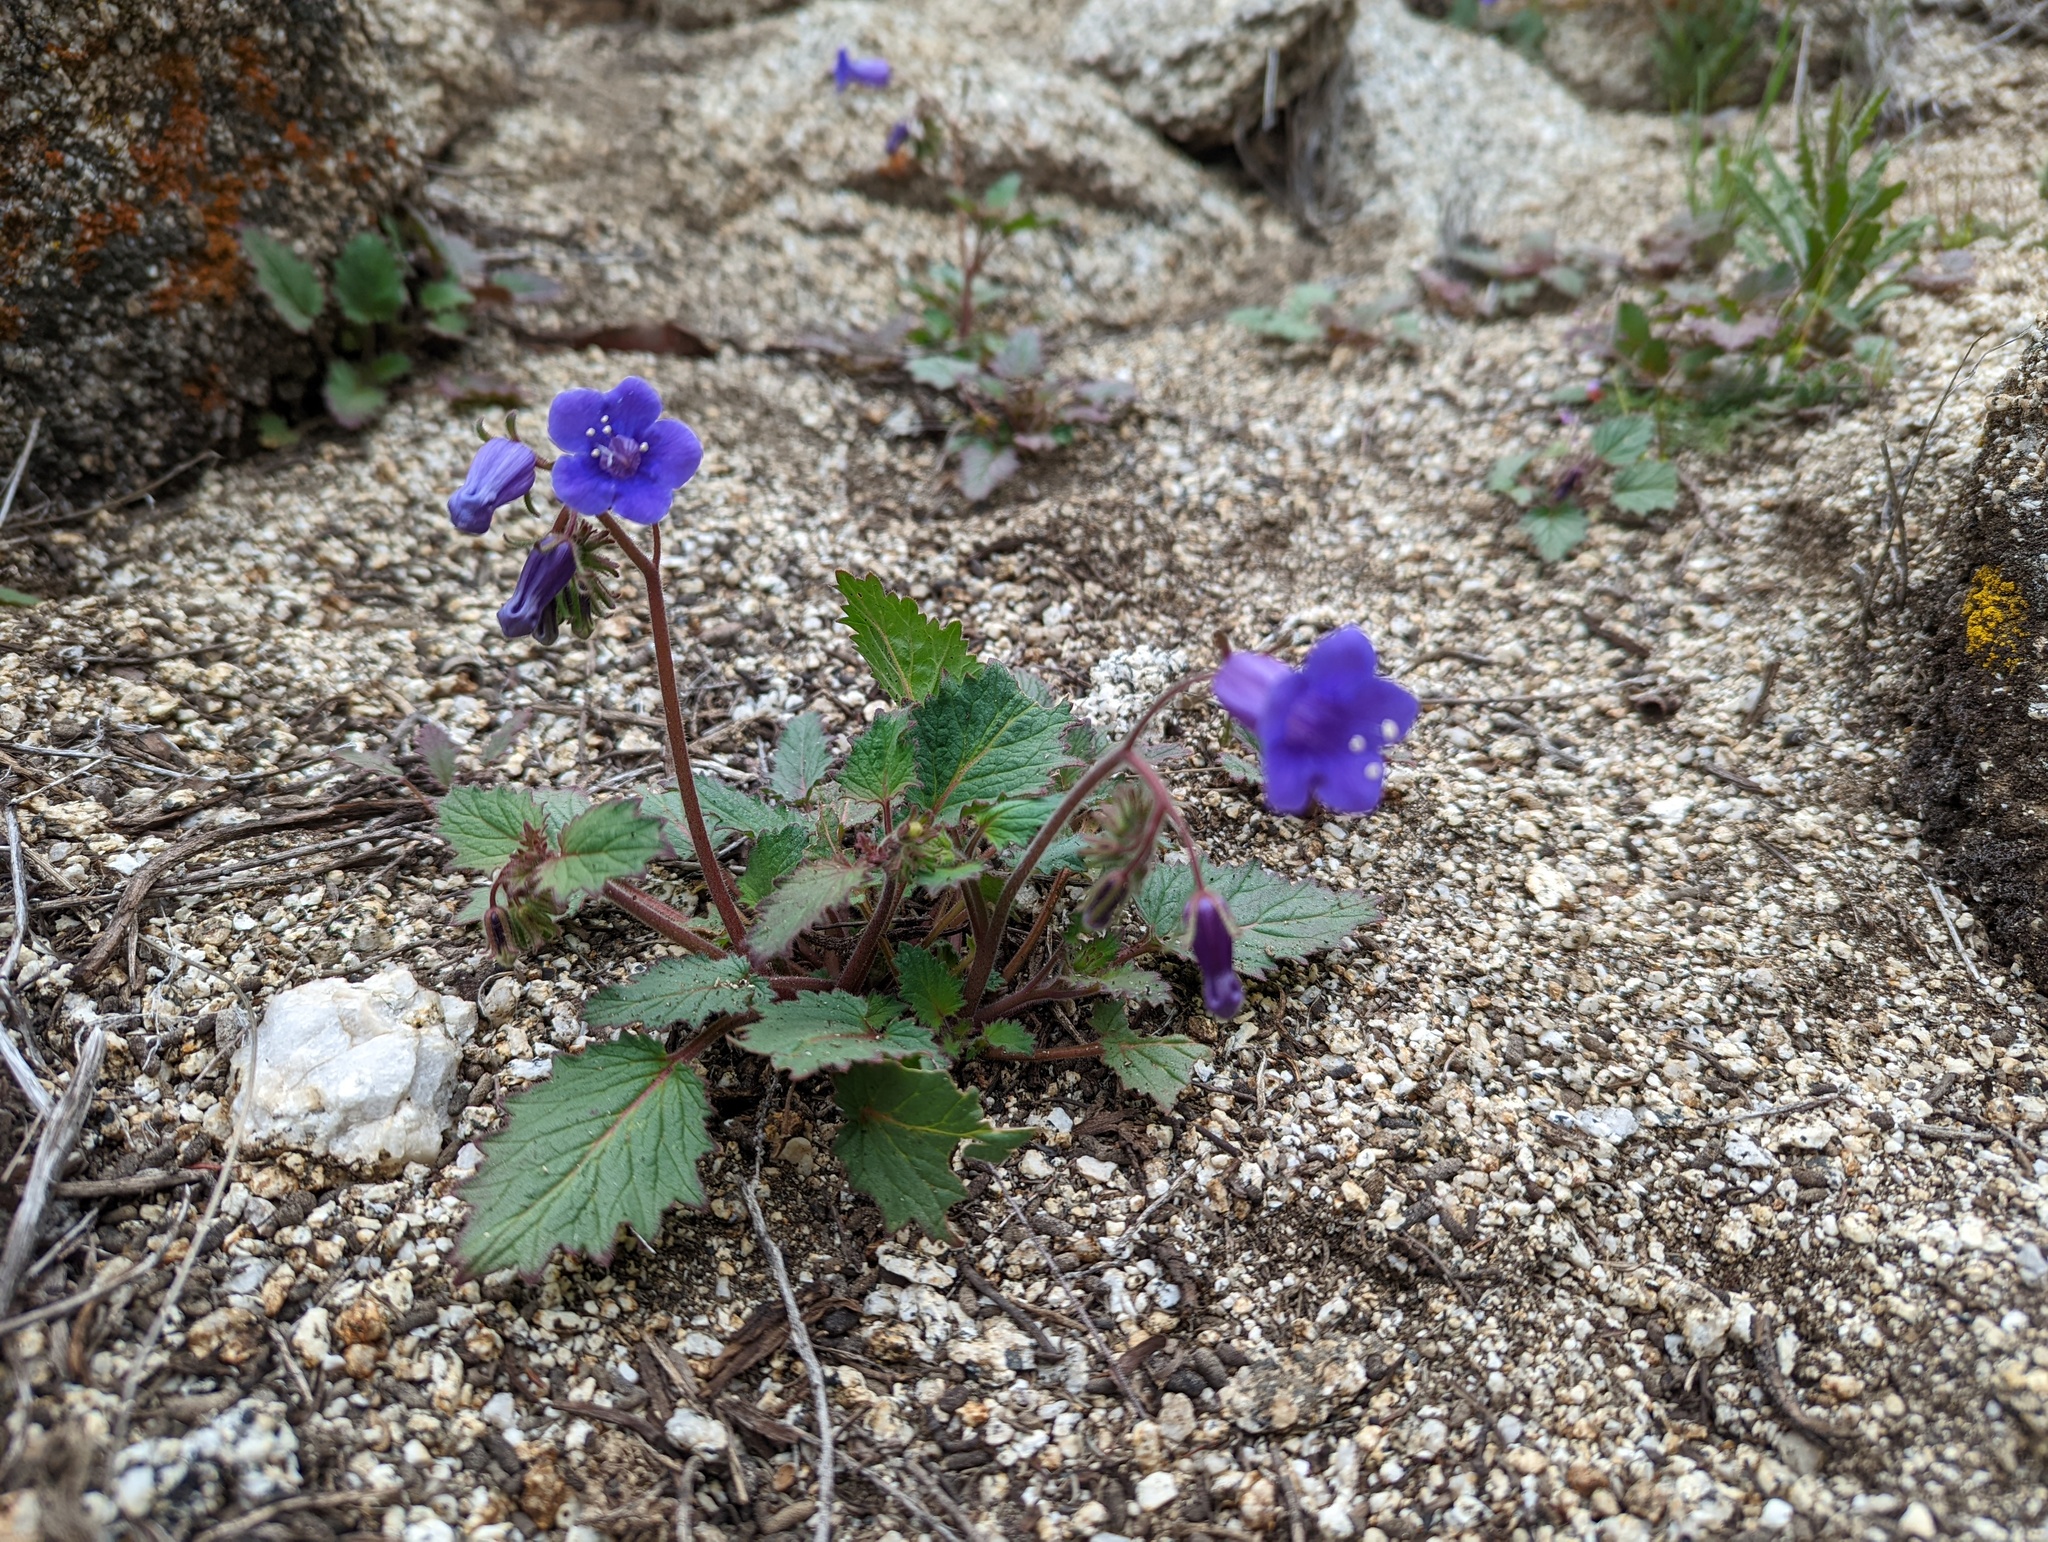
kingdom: Plantae
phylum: Tracheophyta
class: Magnoliopsida
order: Boraginales
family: Hydrophyllaceae
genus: Phacelia
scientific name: Phacelia minor
